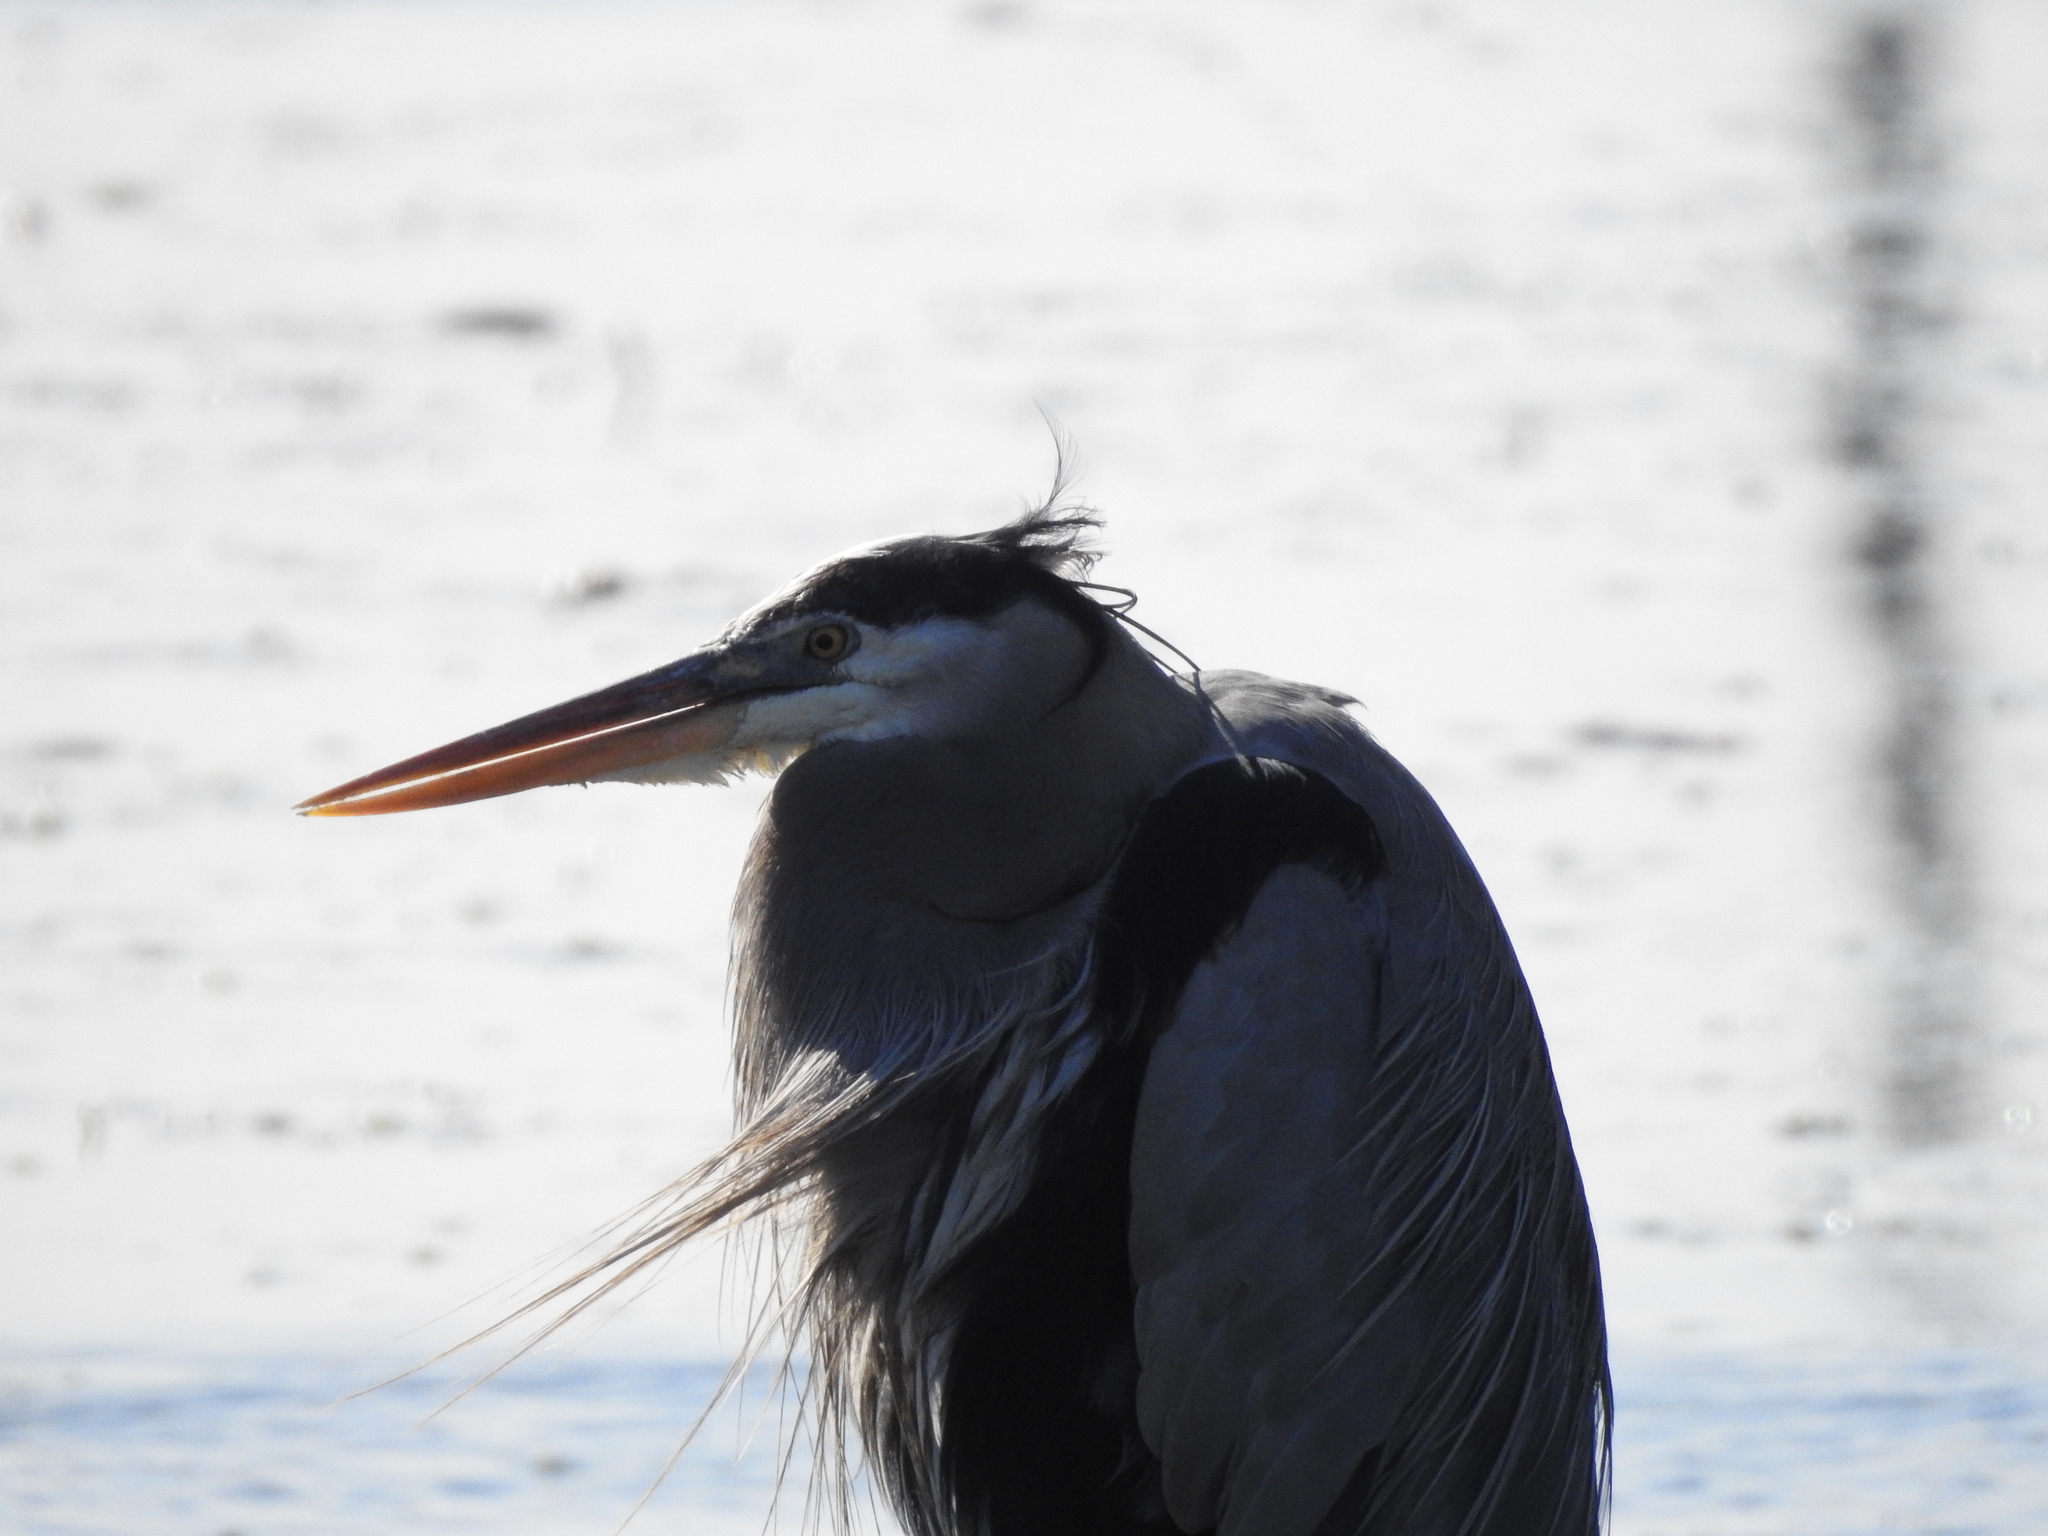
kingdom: Animalia
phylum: Chordata
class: Aves
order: Pelecaniformes
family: Ardeidae
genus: Ardea
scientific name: Ardea herodias
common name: Great blue heron
